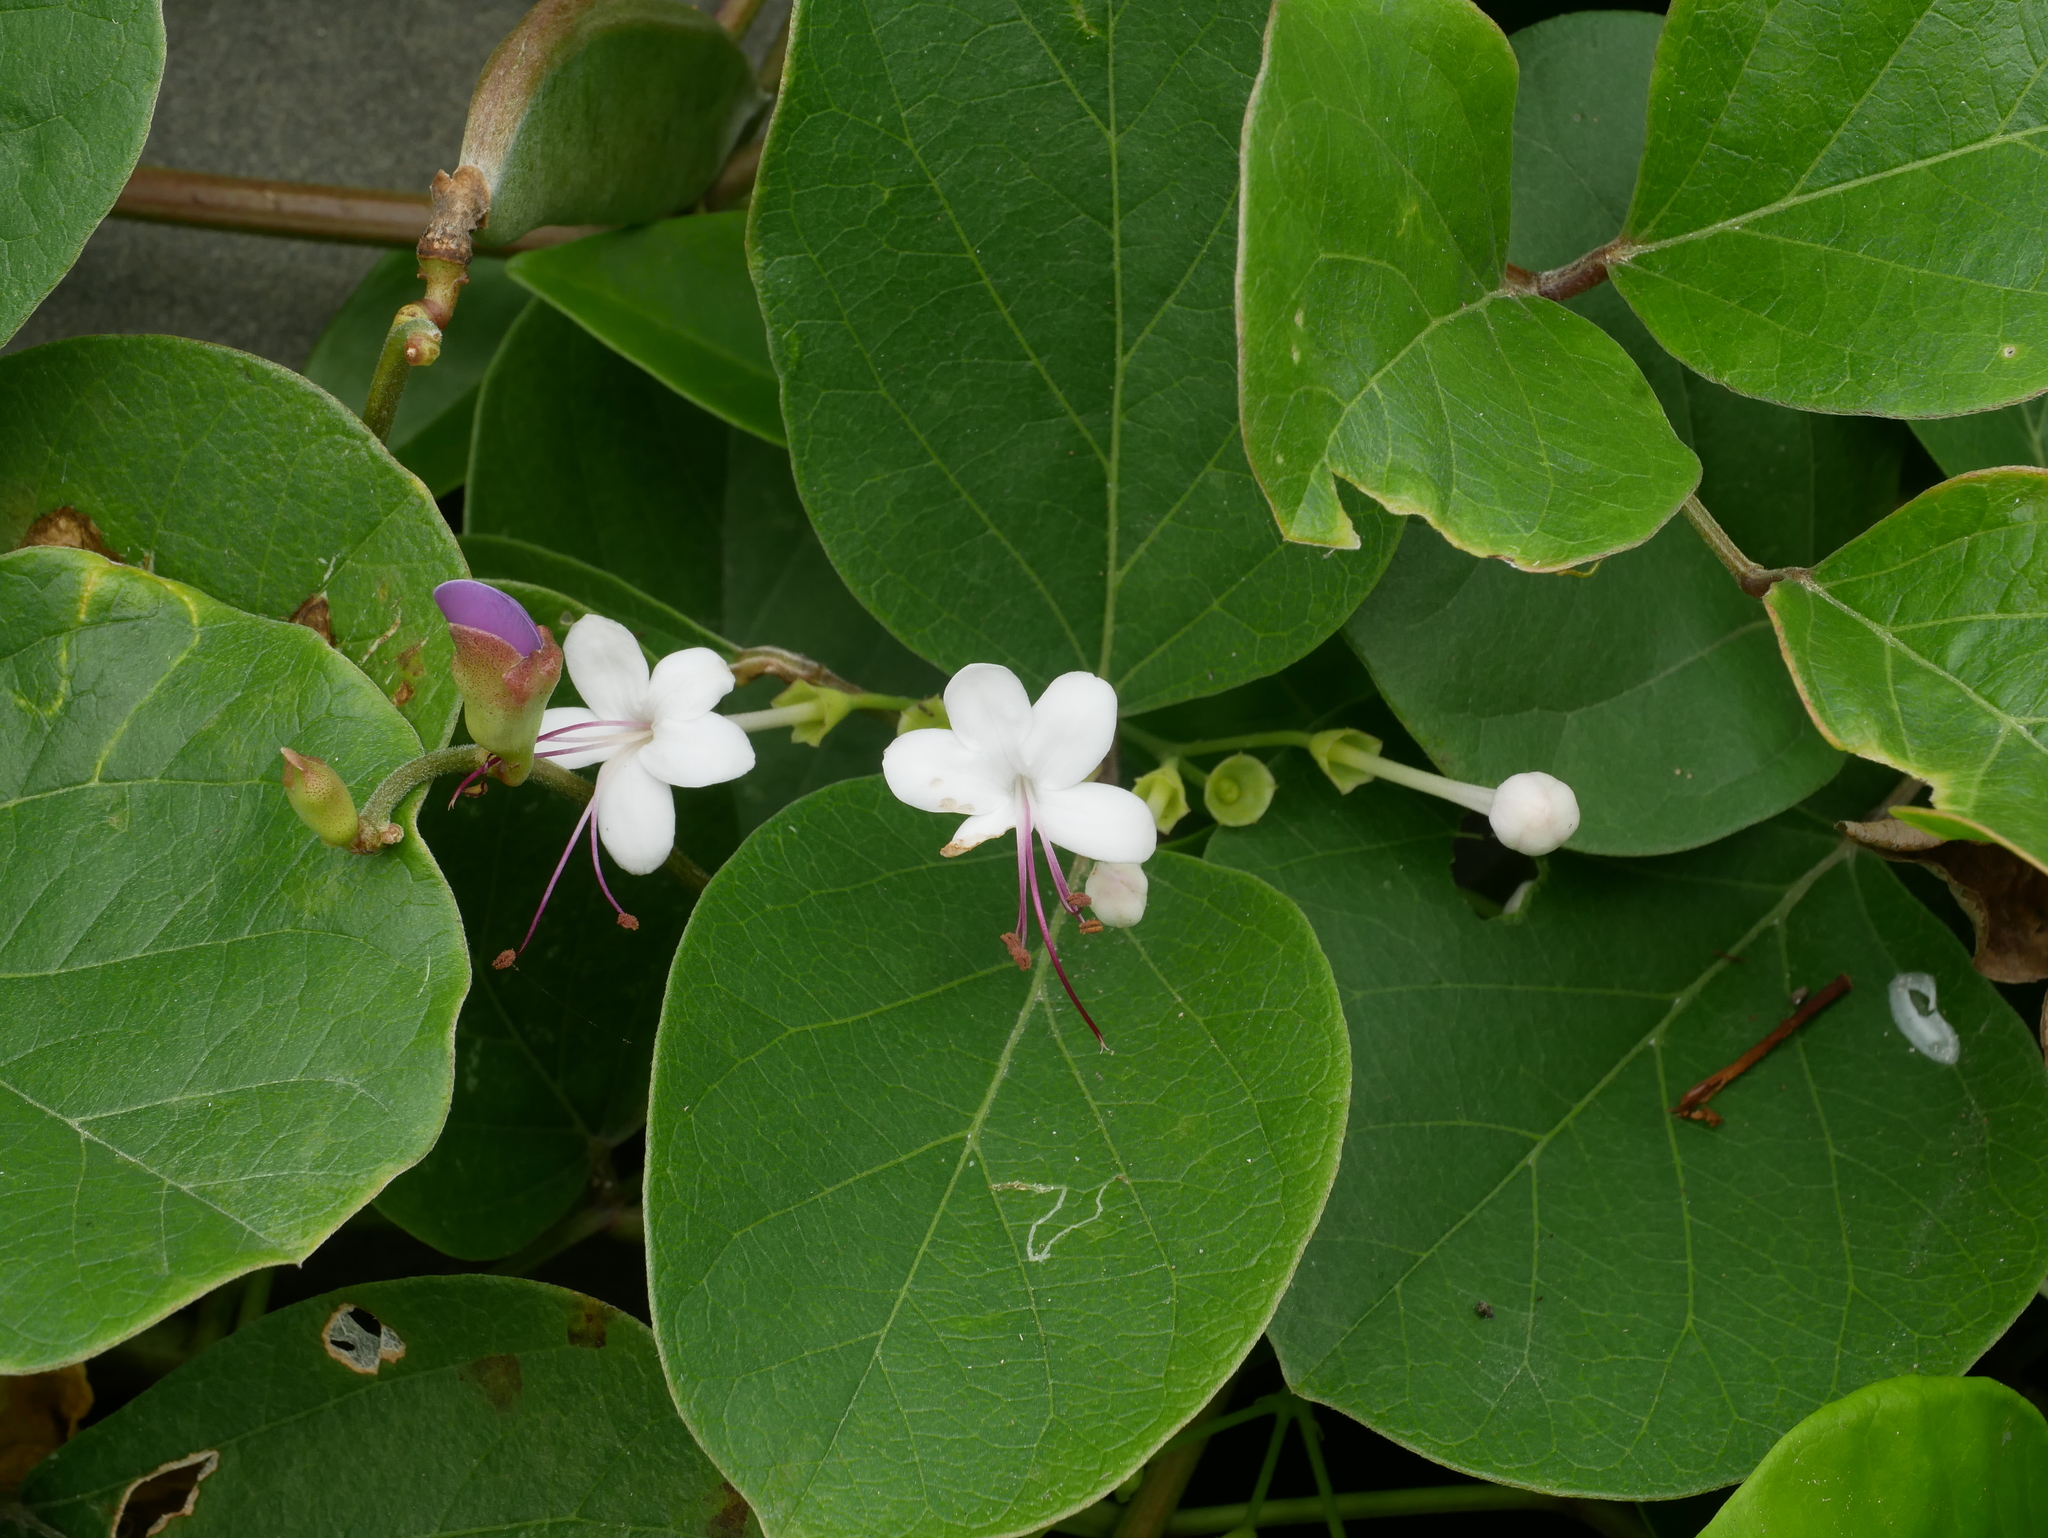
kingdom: Plantae
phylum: Tracheophyta
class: Magnoliopsida
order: Lamiales
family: Lamiaceae
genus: Volkameria
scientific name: Volkameria inermis
